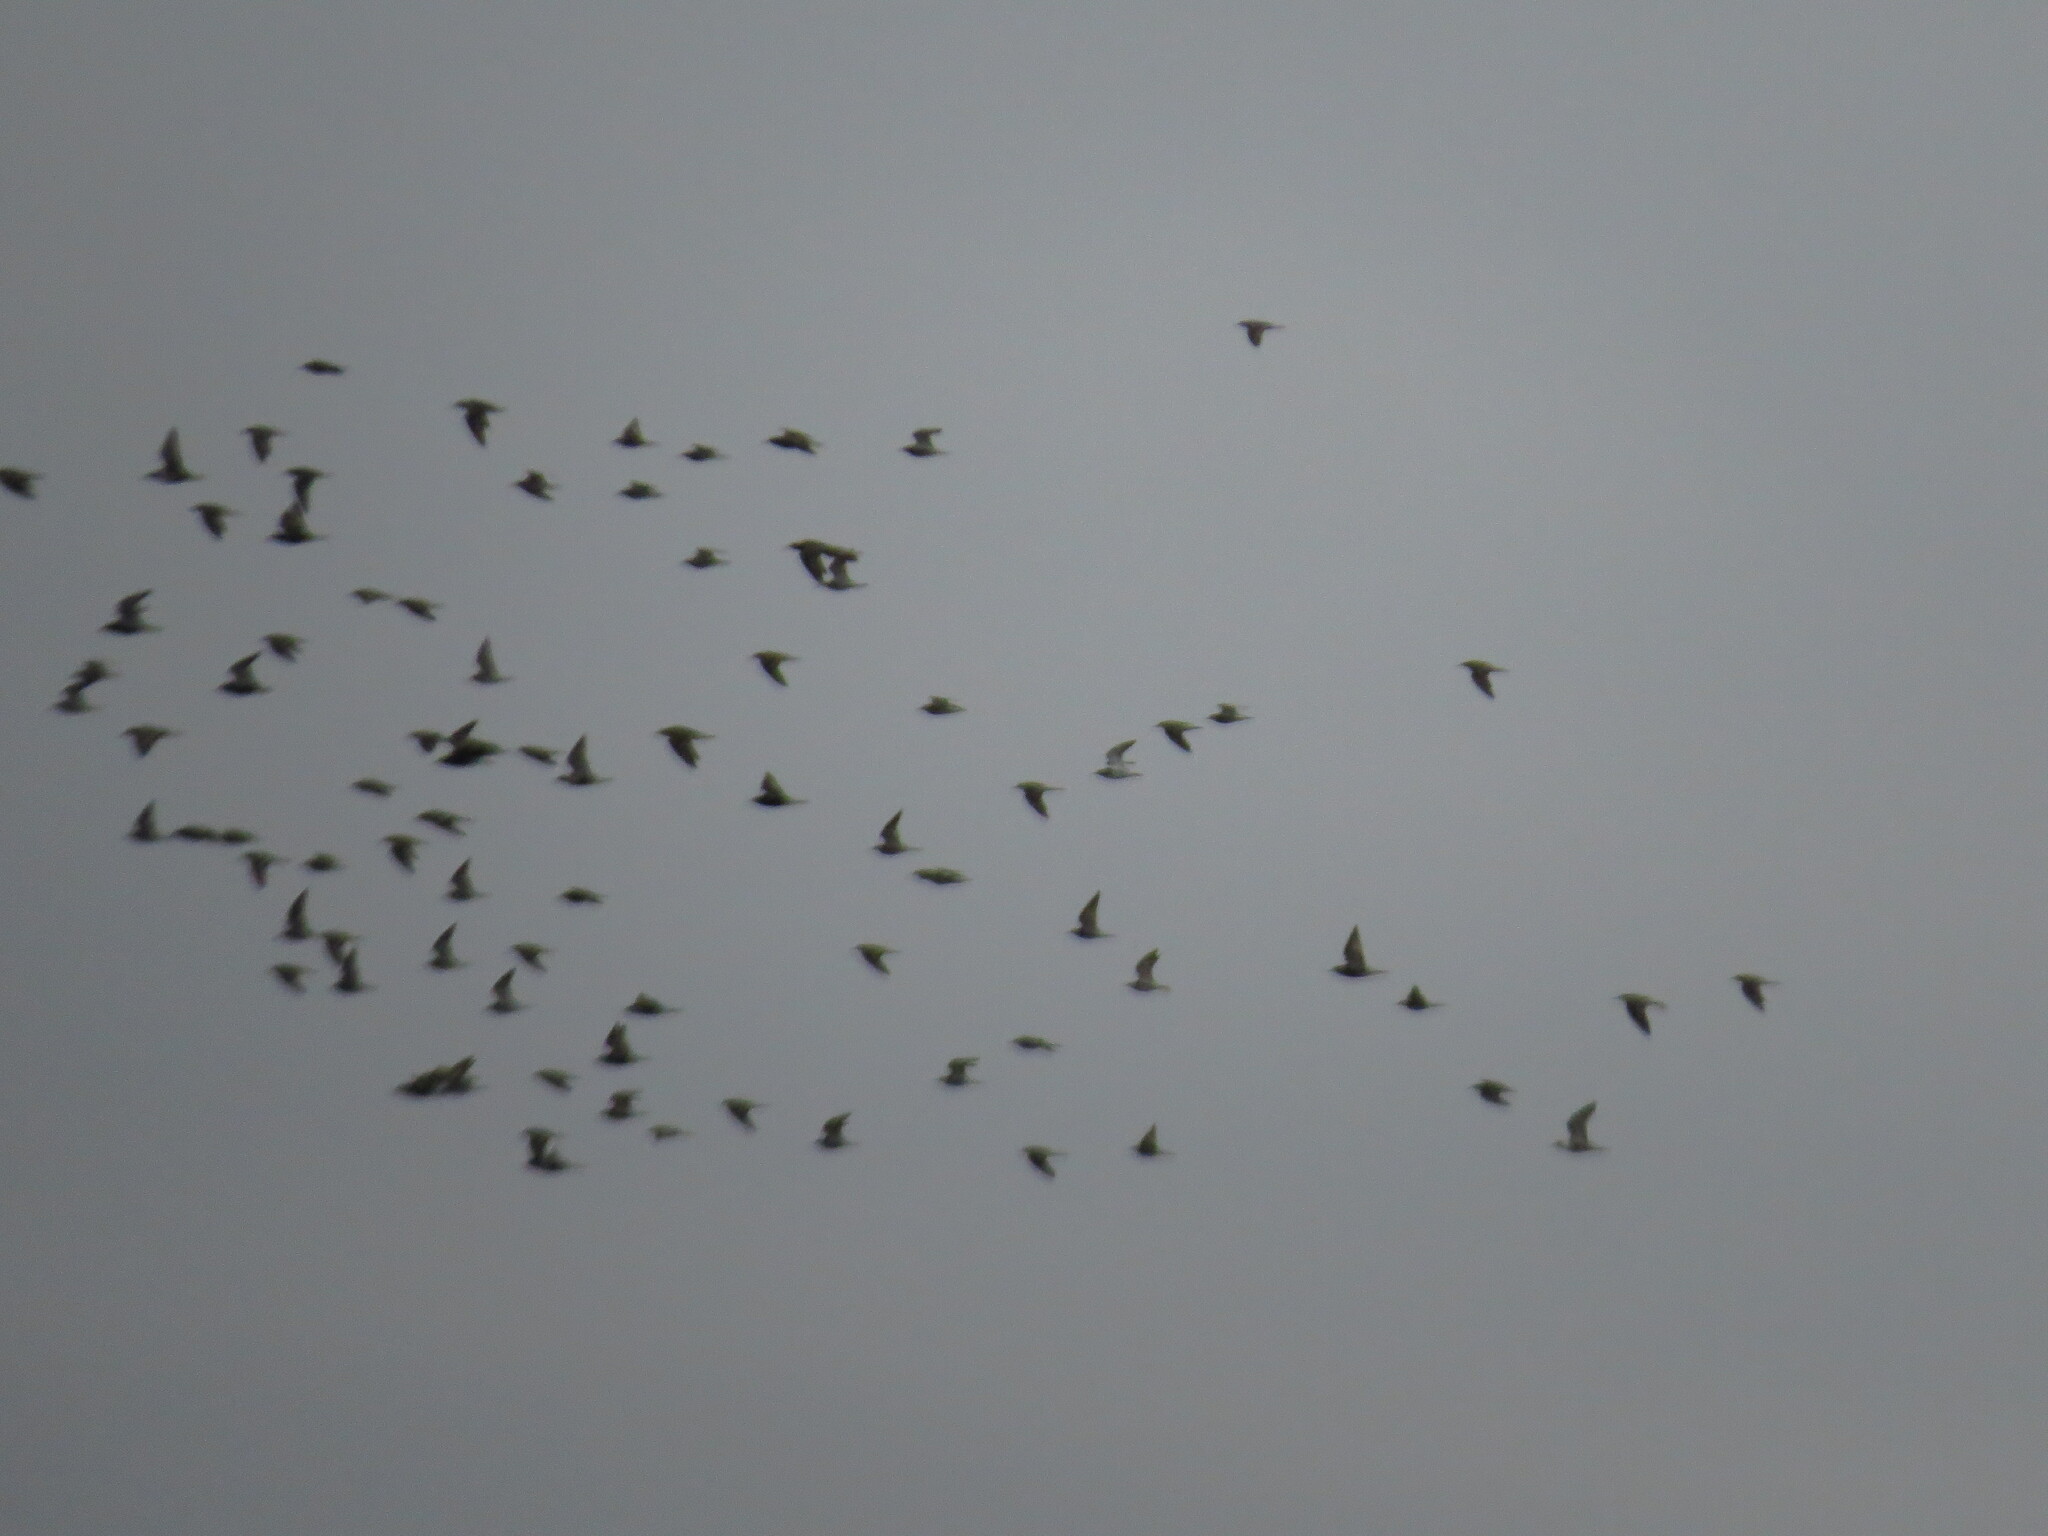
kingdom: Animalia
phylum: Chordata
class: Aves
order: Charadriiformes
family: Scolopacidae
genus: Calidris
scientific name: Calidris pugnax
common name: Ruff
